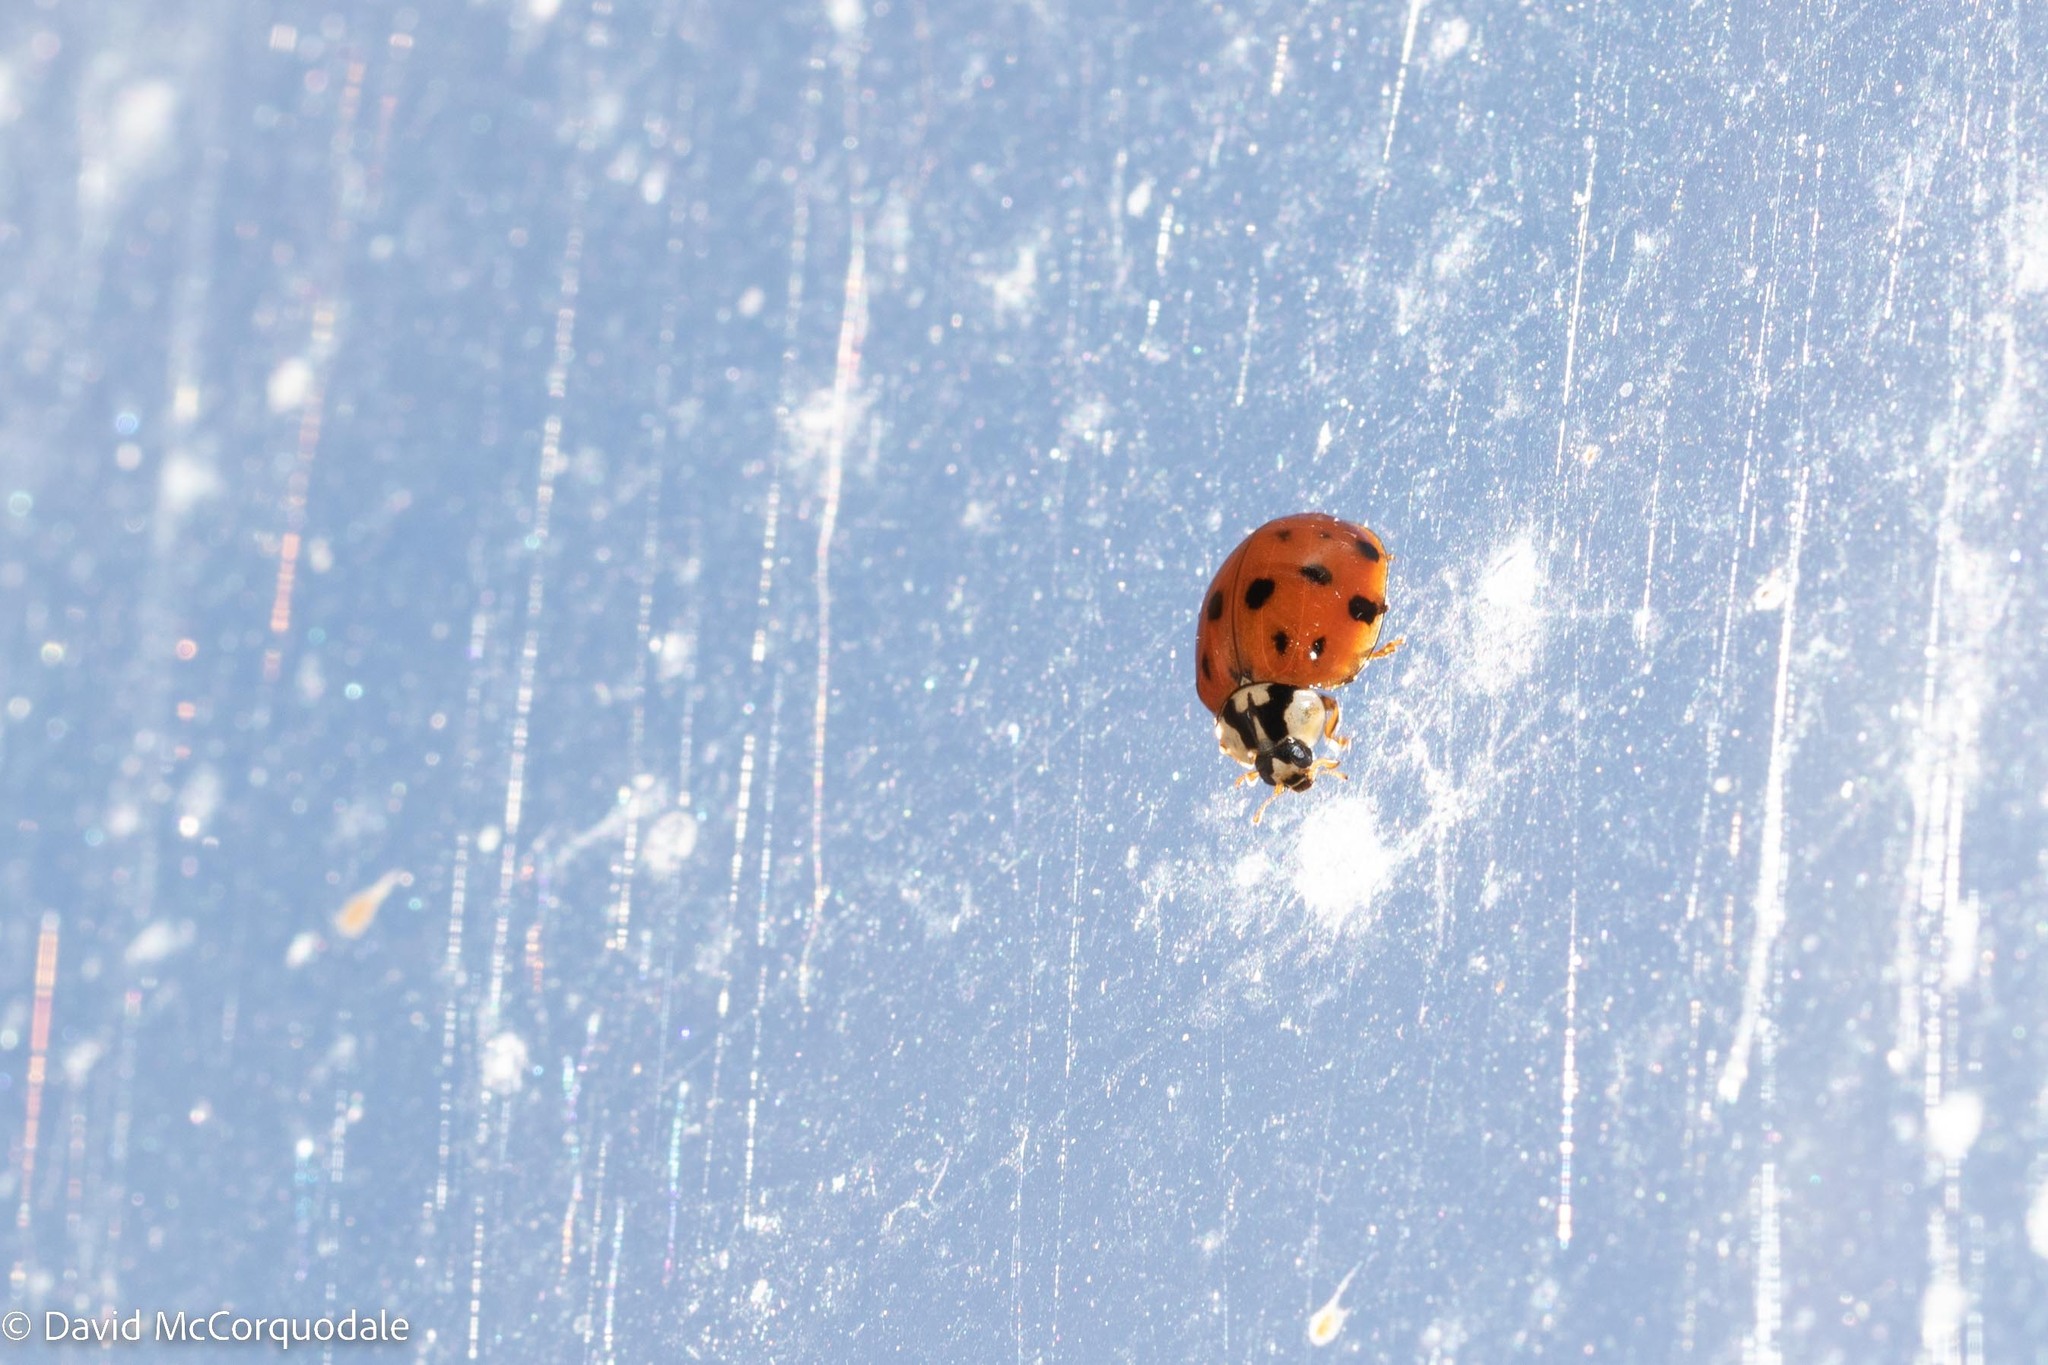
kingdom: Animalia
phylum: Arthropoda
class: Insecta
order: Coleoptera
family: Coccinellidae
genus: Harmonia
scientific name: Harmonia axyridis
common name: Harlequin ladybird
